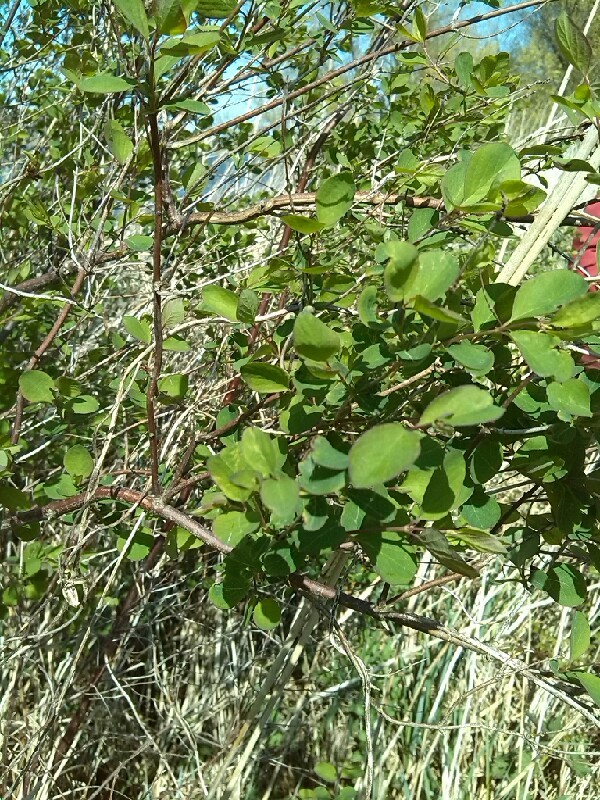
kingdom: Plantae
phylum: Tracheophyta
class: Magnoliopsida
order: Dipsacales
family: Caprifoliaceae
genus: Symphoricarpos
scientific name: Symphoricarpos albus
